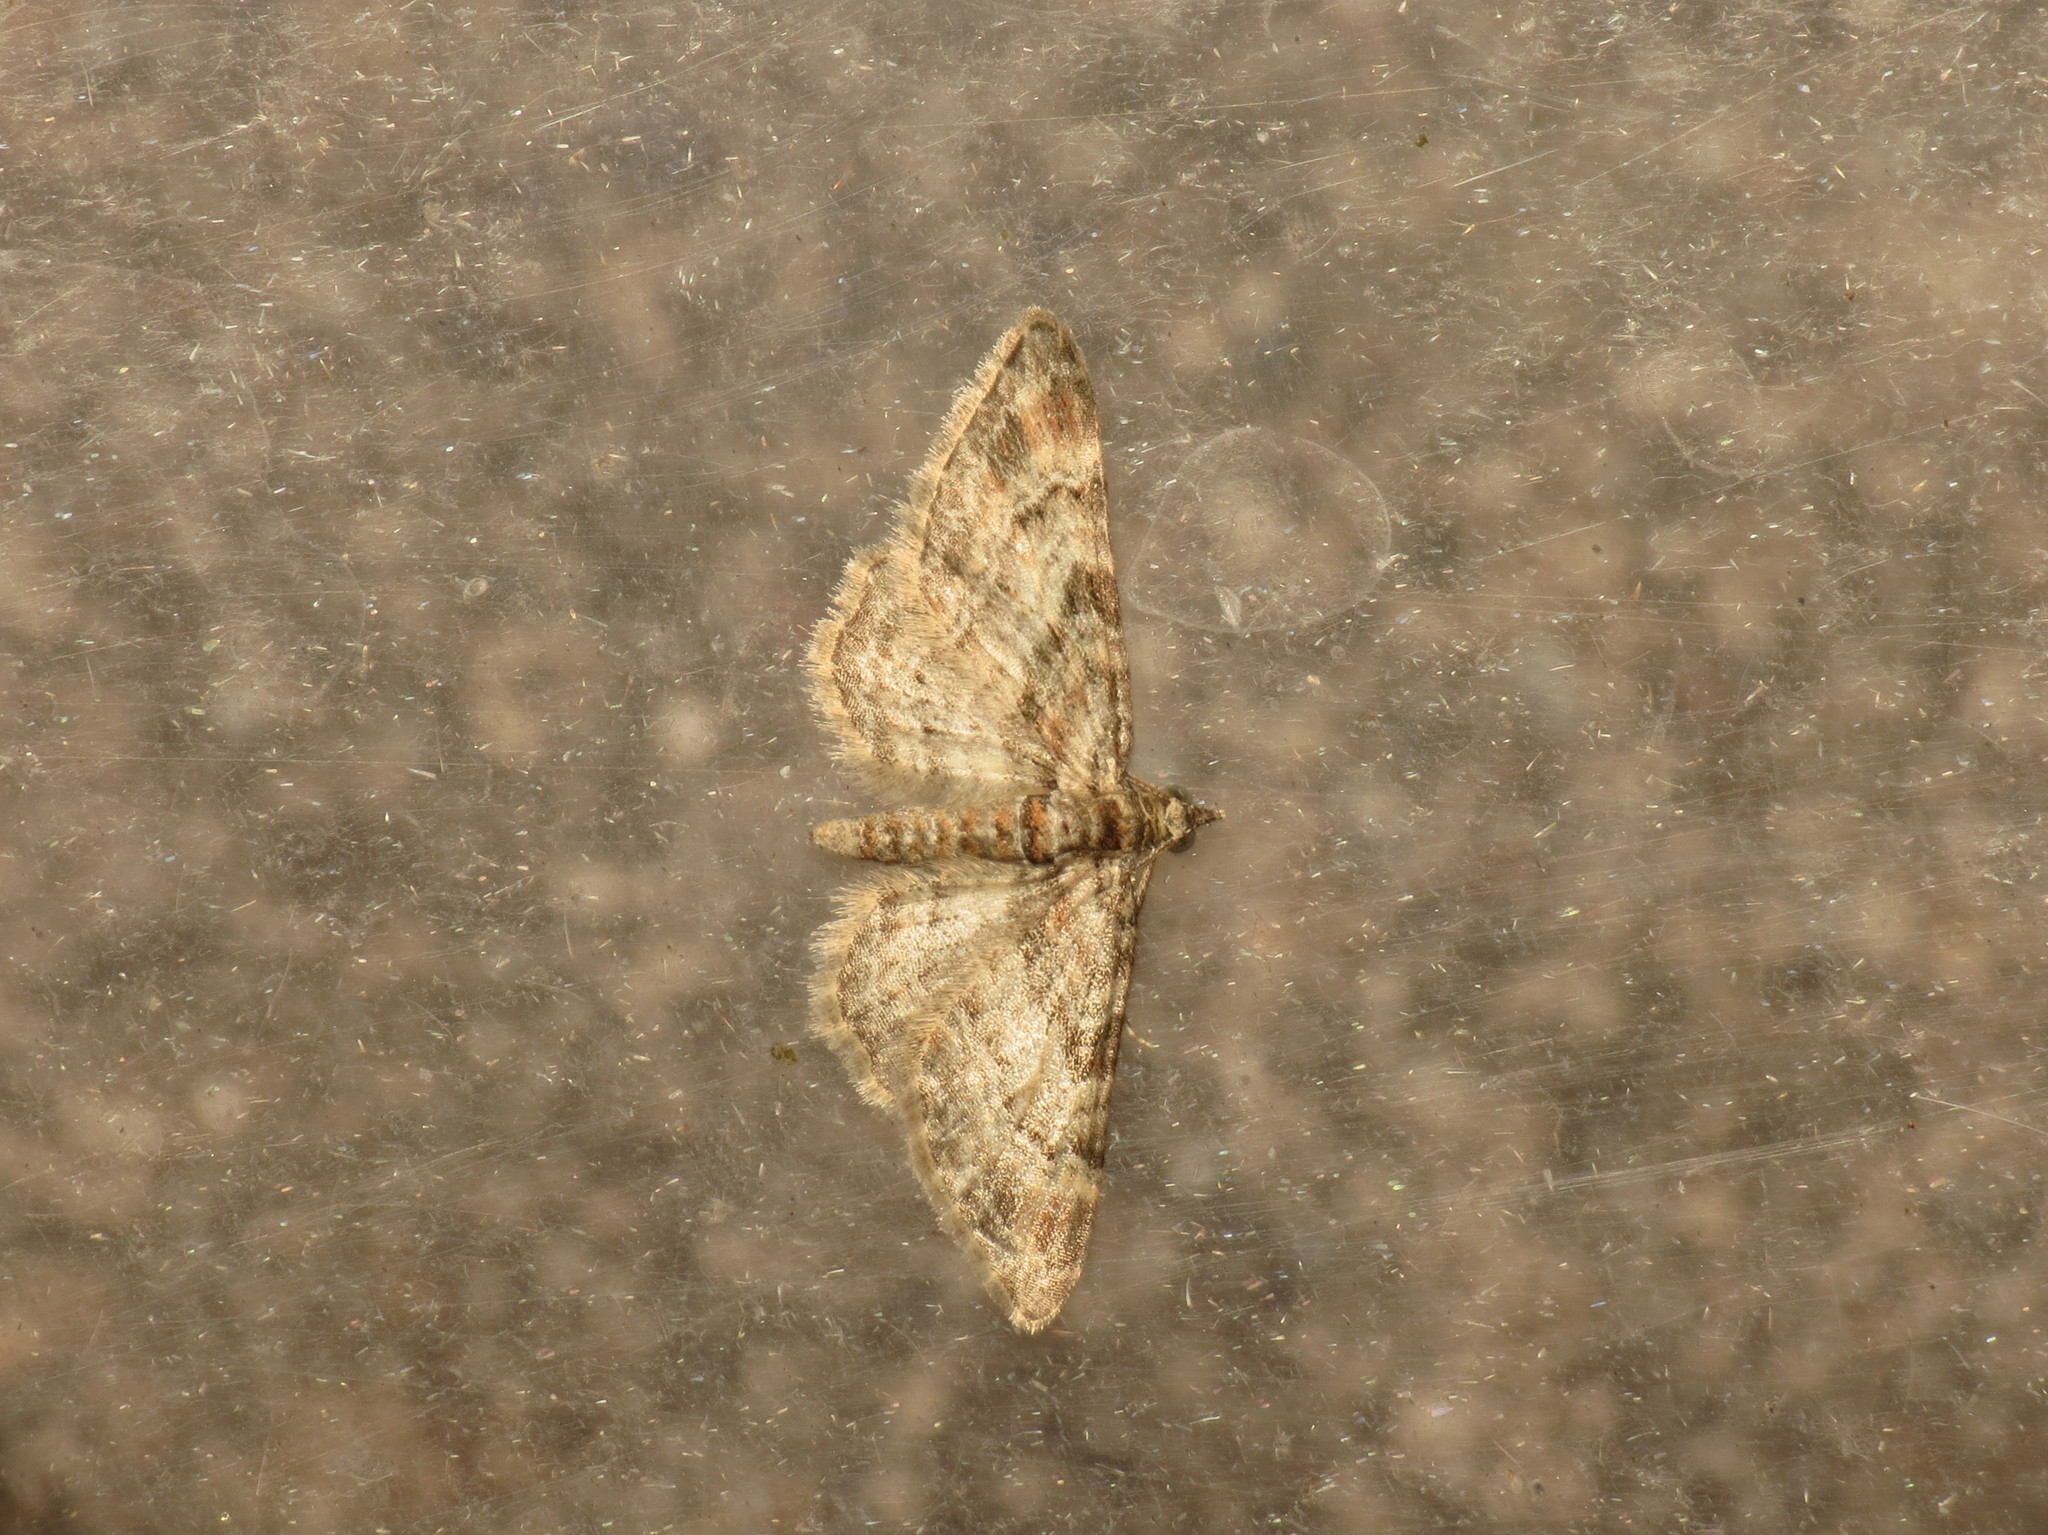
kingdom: Animalia
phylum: Arthropoda
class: Insecta
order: Lepidoptera
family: Geometridae
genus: Gymnoscelis
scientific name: Gymnoscelis rufifasciata
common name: Double-striped pug
